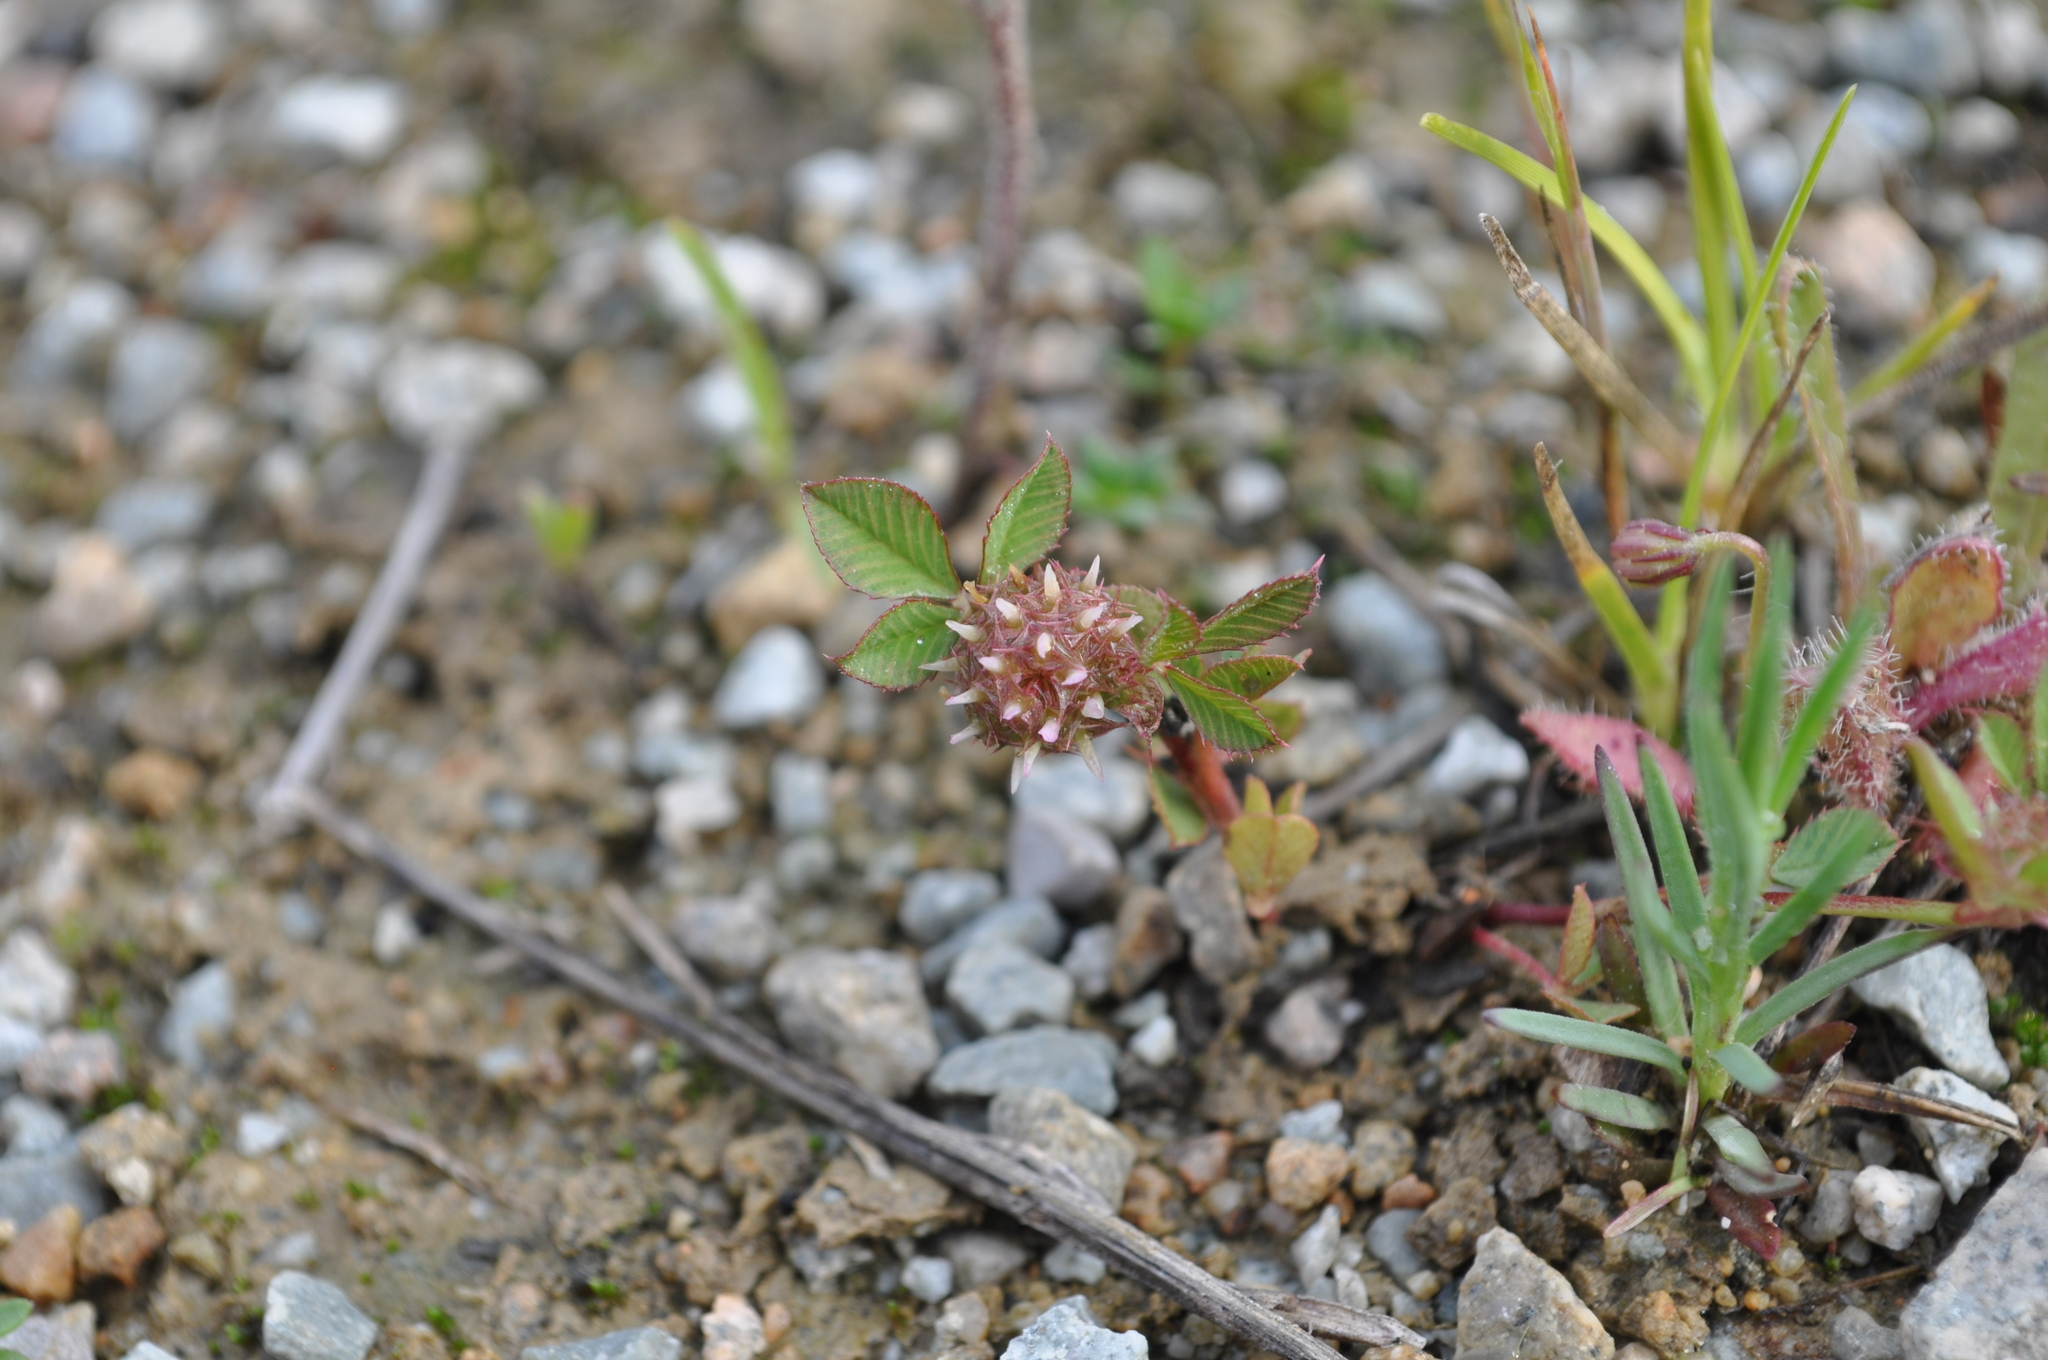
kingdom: Plantae
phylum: Tracheophyta
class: Magnoliopsida
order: Fabales
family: Fabaceae
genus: Trifolium
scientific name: Trifolium glomeratum
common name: Clustered clover
